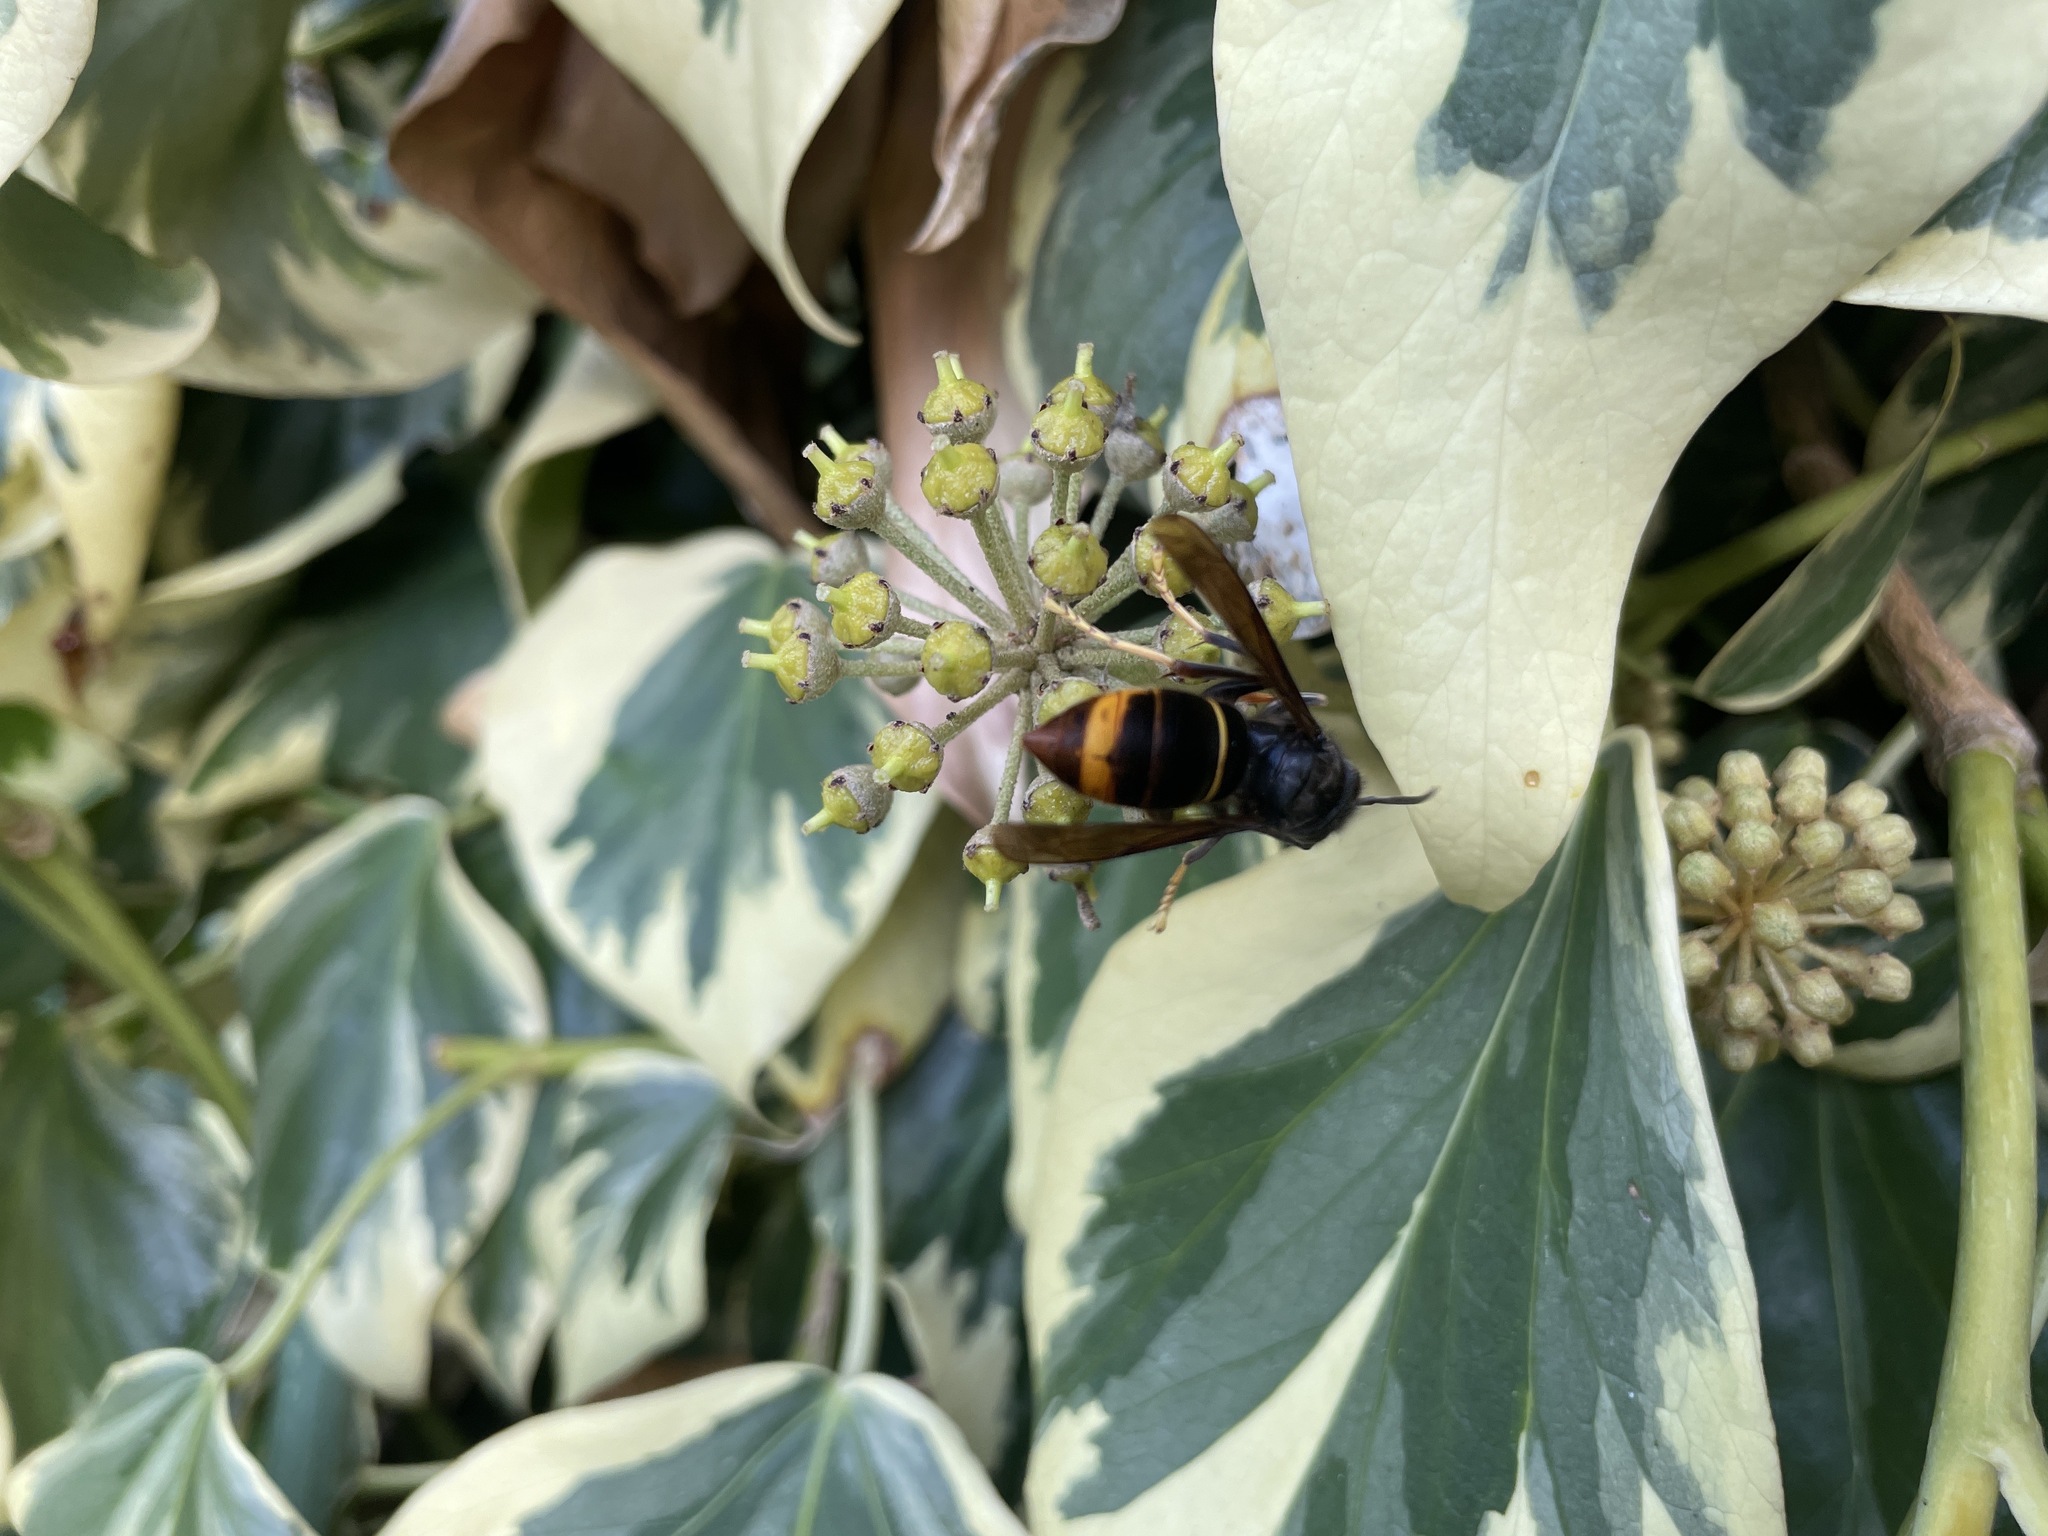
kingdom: Animalia
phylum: Arthropoda
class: Insecta
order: Hymenoptera
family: Vespidae
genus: Vespa
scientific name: Vespa velutina
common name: Asian hornet
